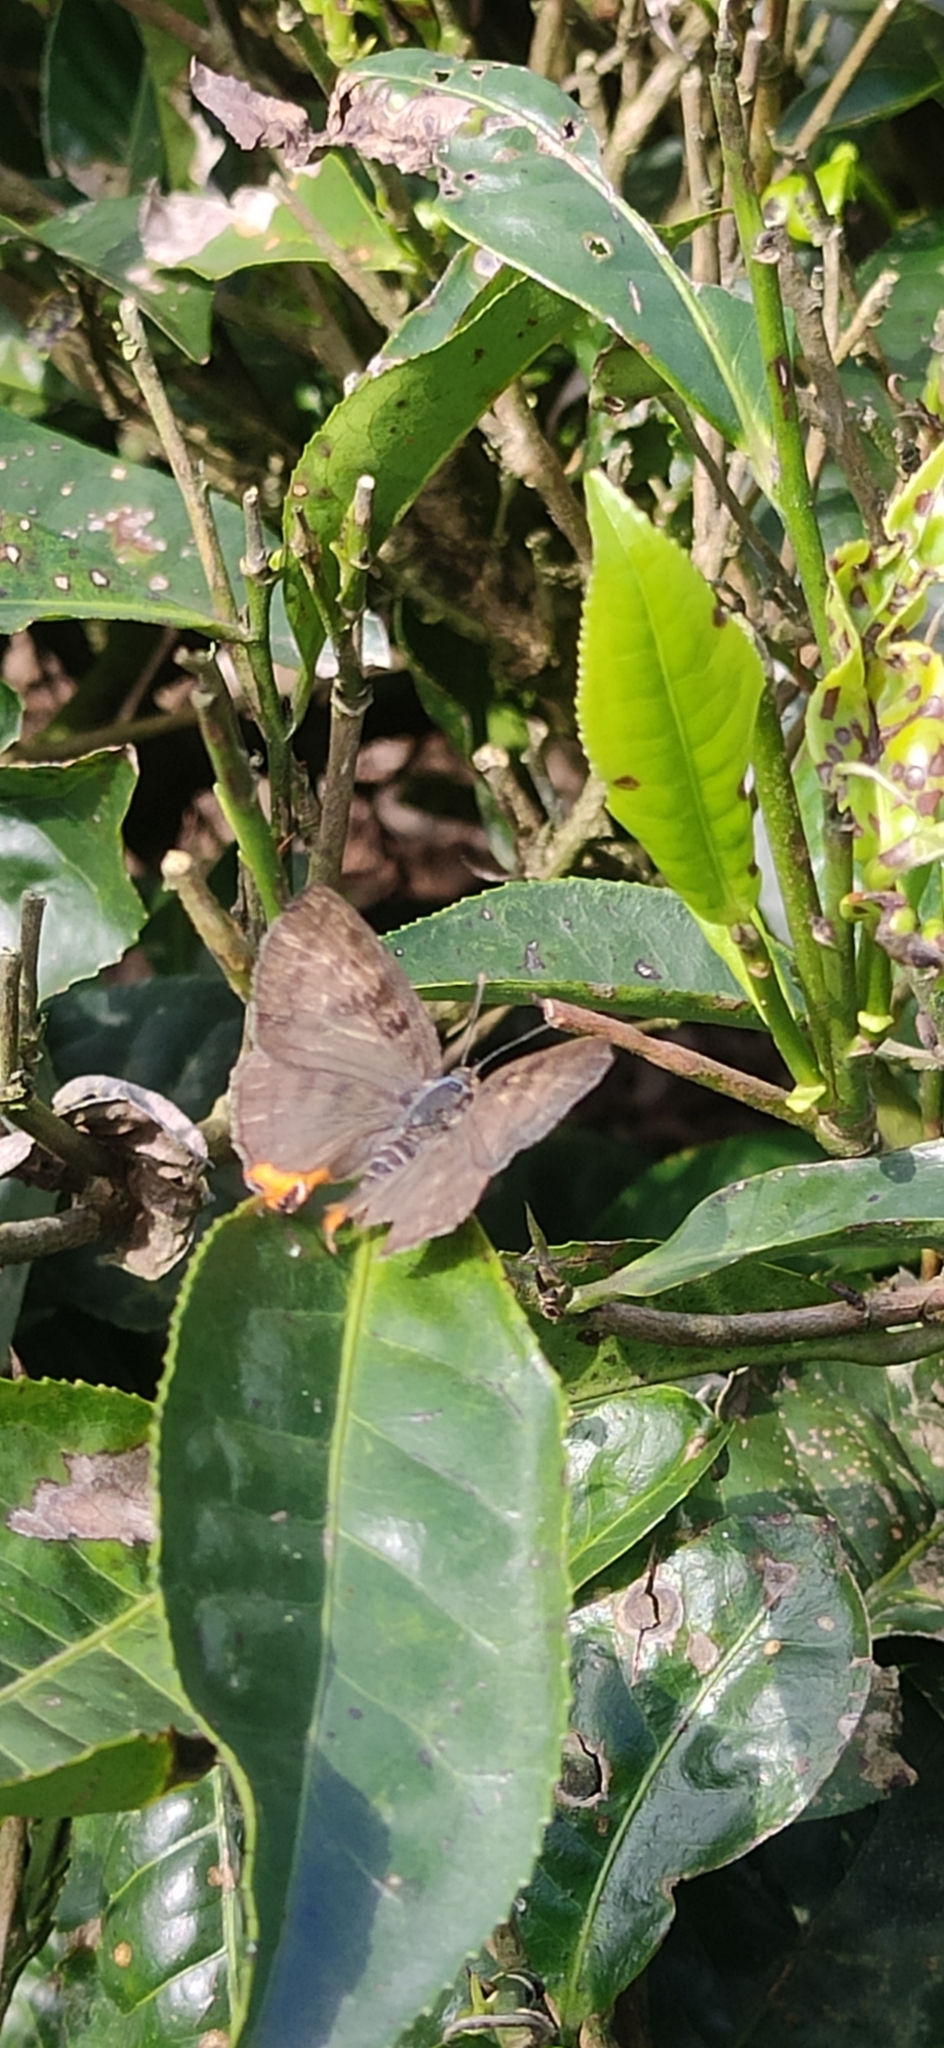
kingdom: Animalia
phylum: Arthropoda
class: Insecta
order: Lepidoptera
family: Lycaenidae
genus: Cigaritis
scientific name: Cigaritis lohita
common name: Long-banded silverline
